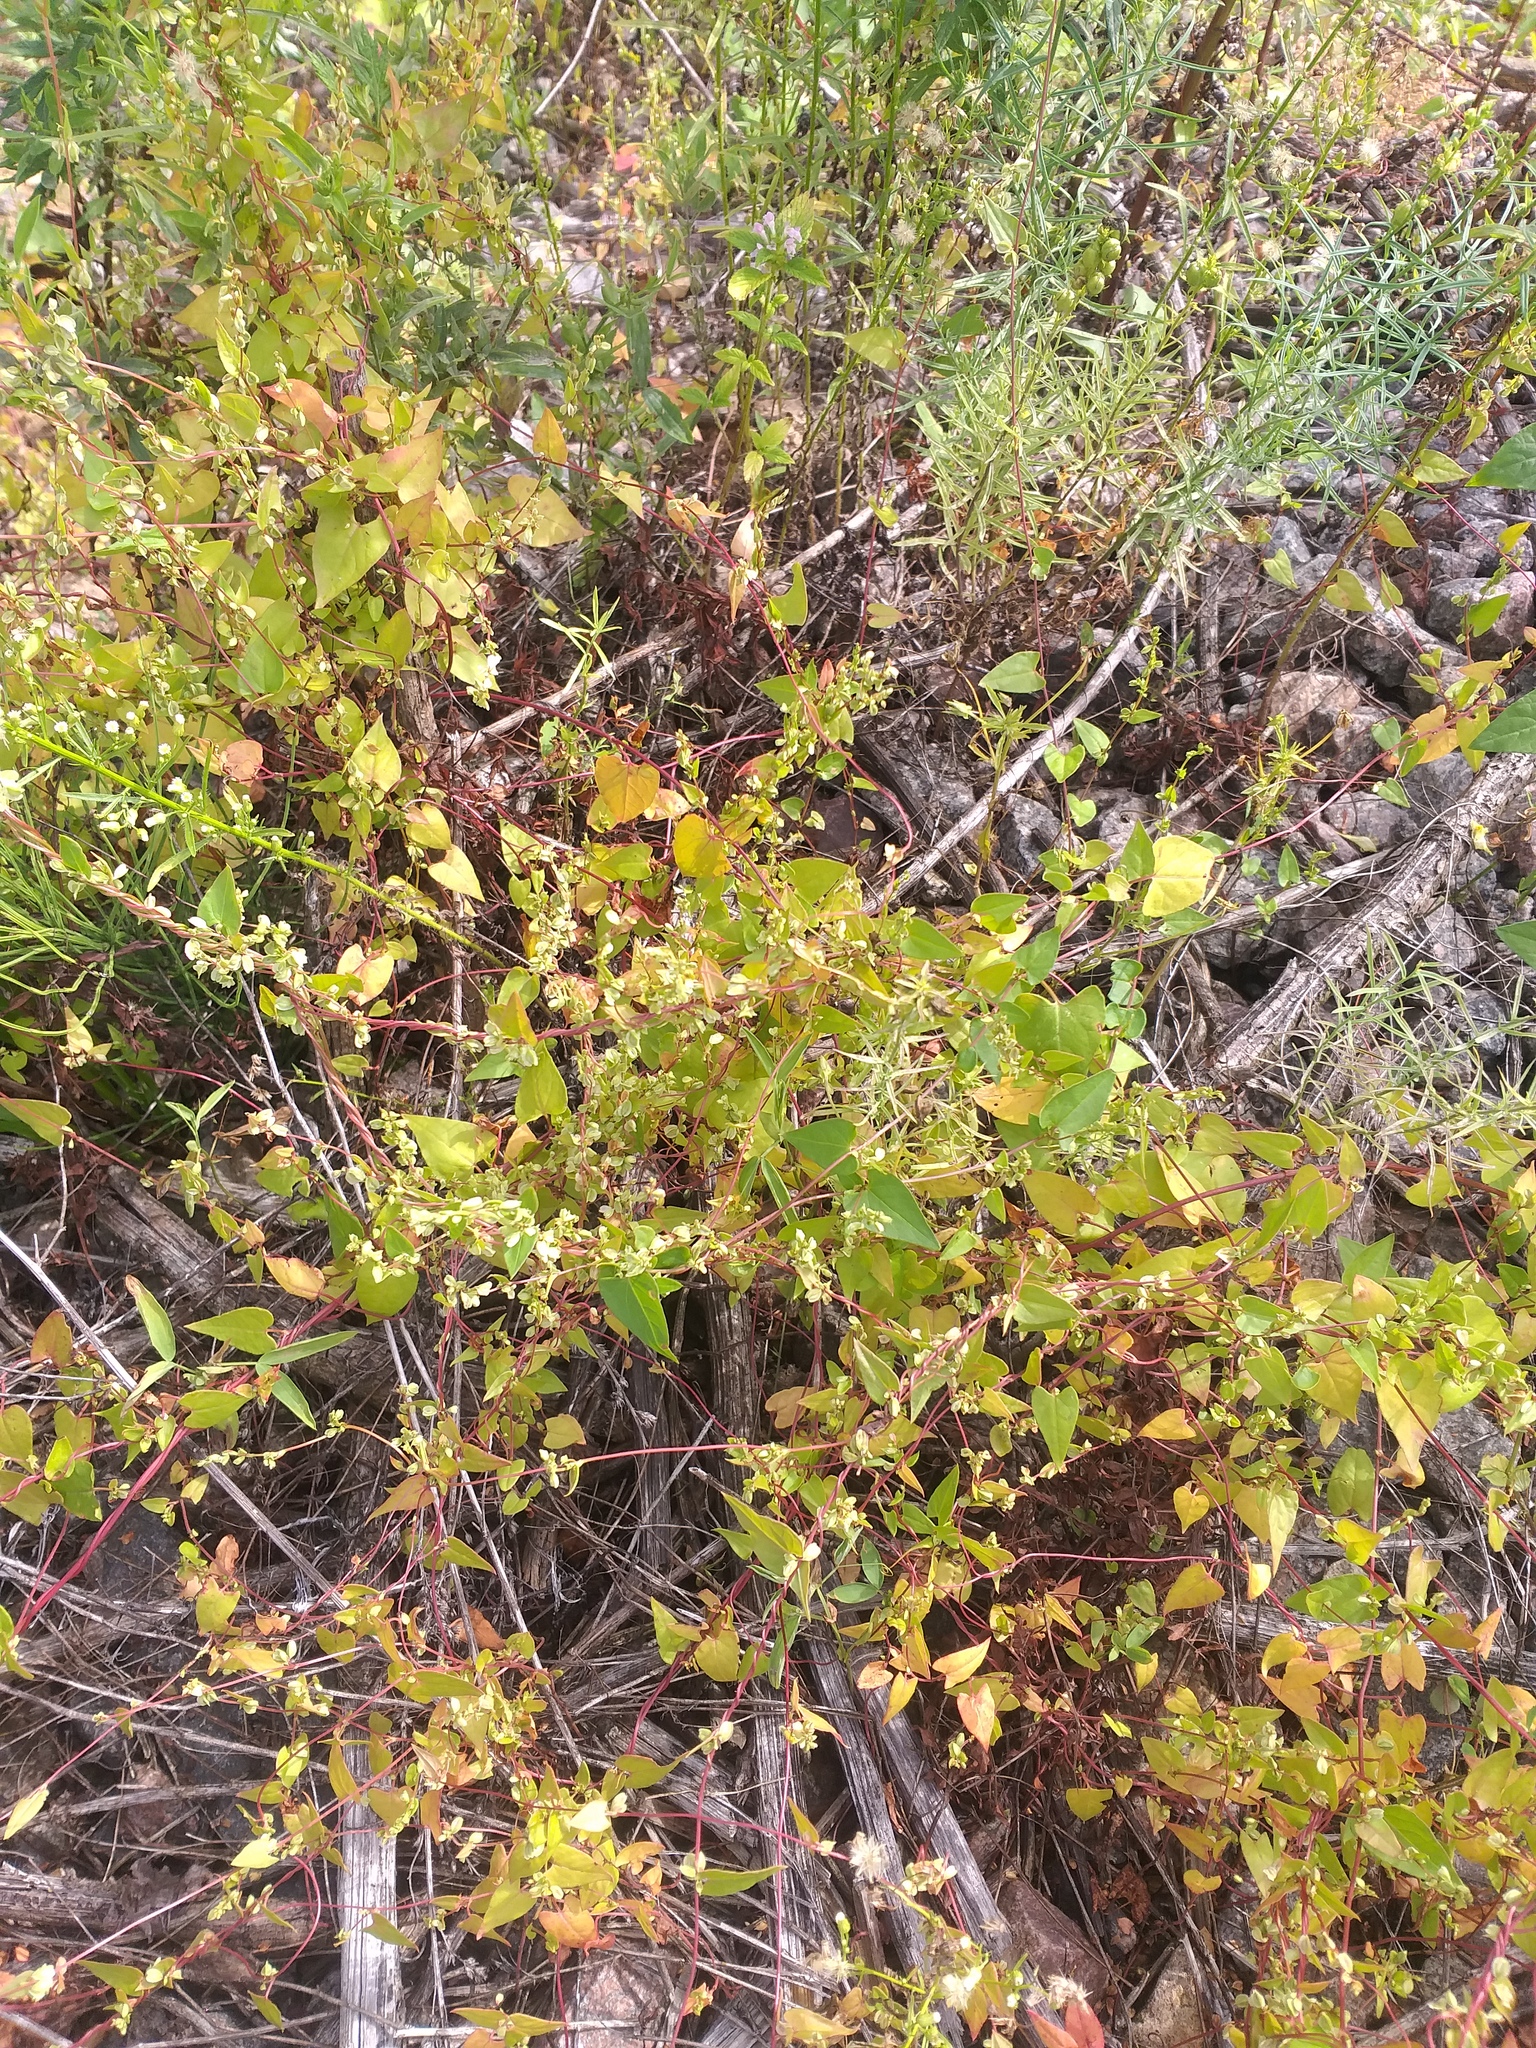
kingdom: Plantae
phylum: Tracheophyta
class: Magnoliopsida
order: Caryophyllales
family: Polygonaceae
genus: Fallopia
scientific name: Fallopia dumetorum
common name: Copse-bindweed
